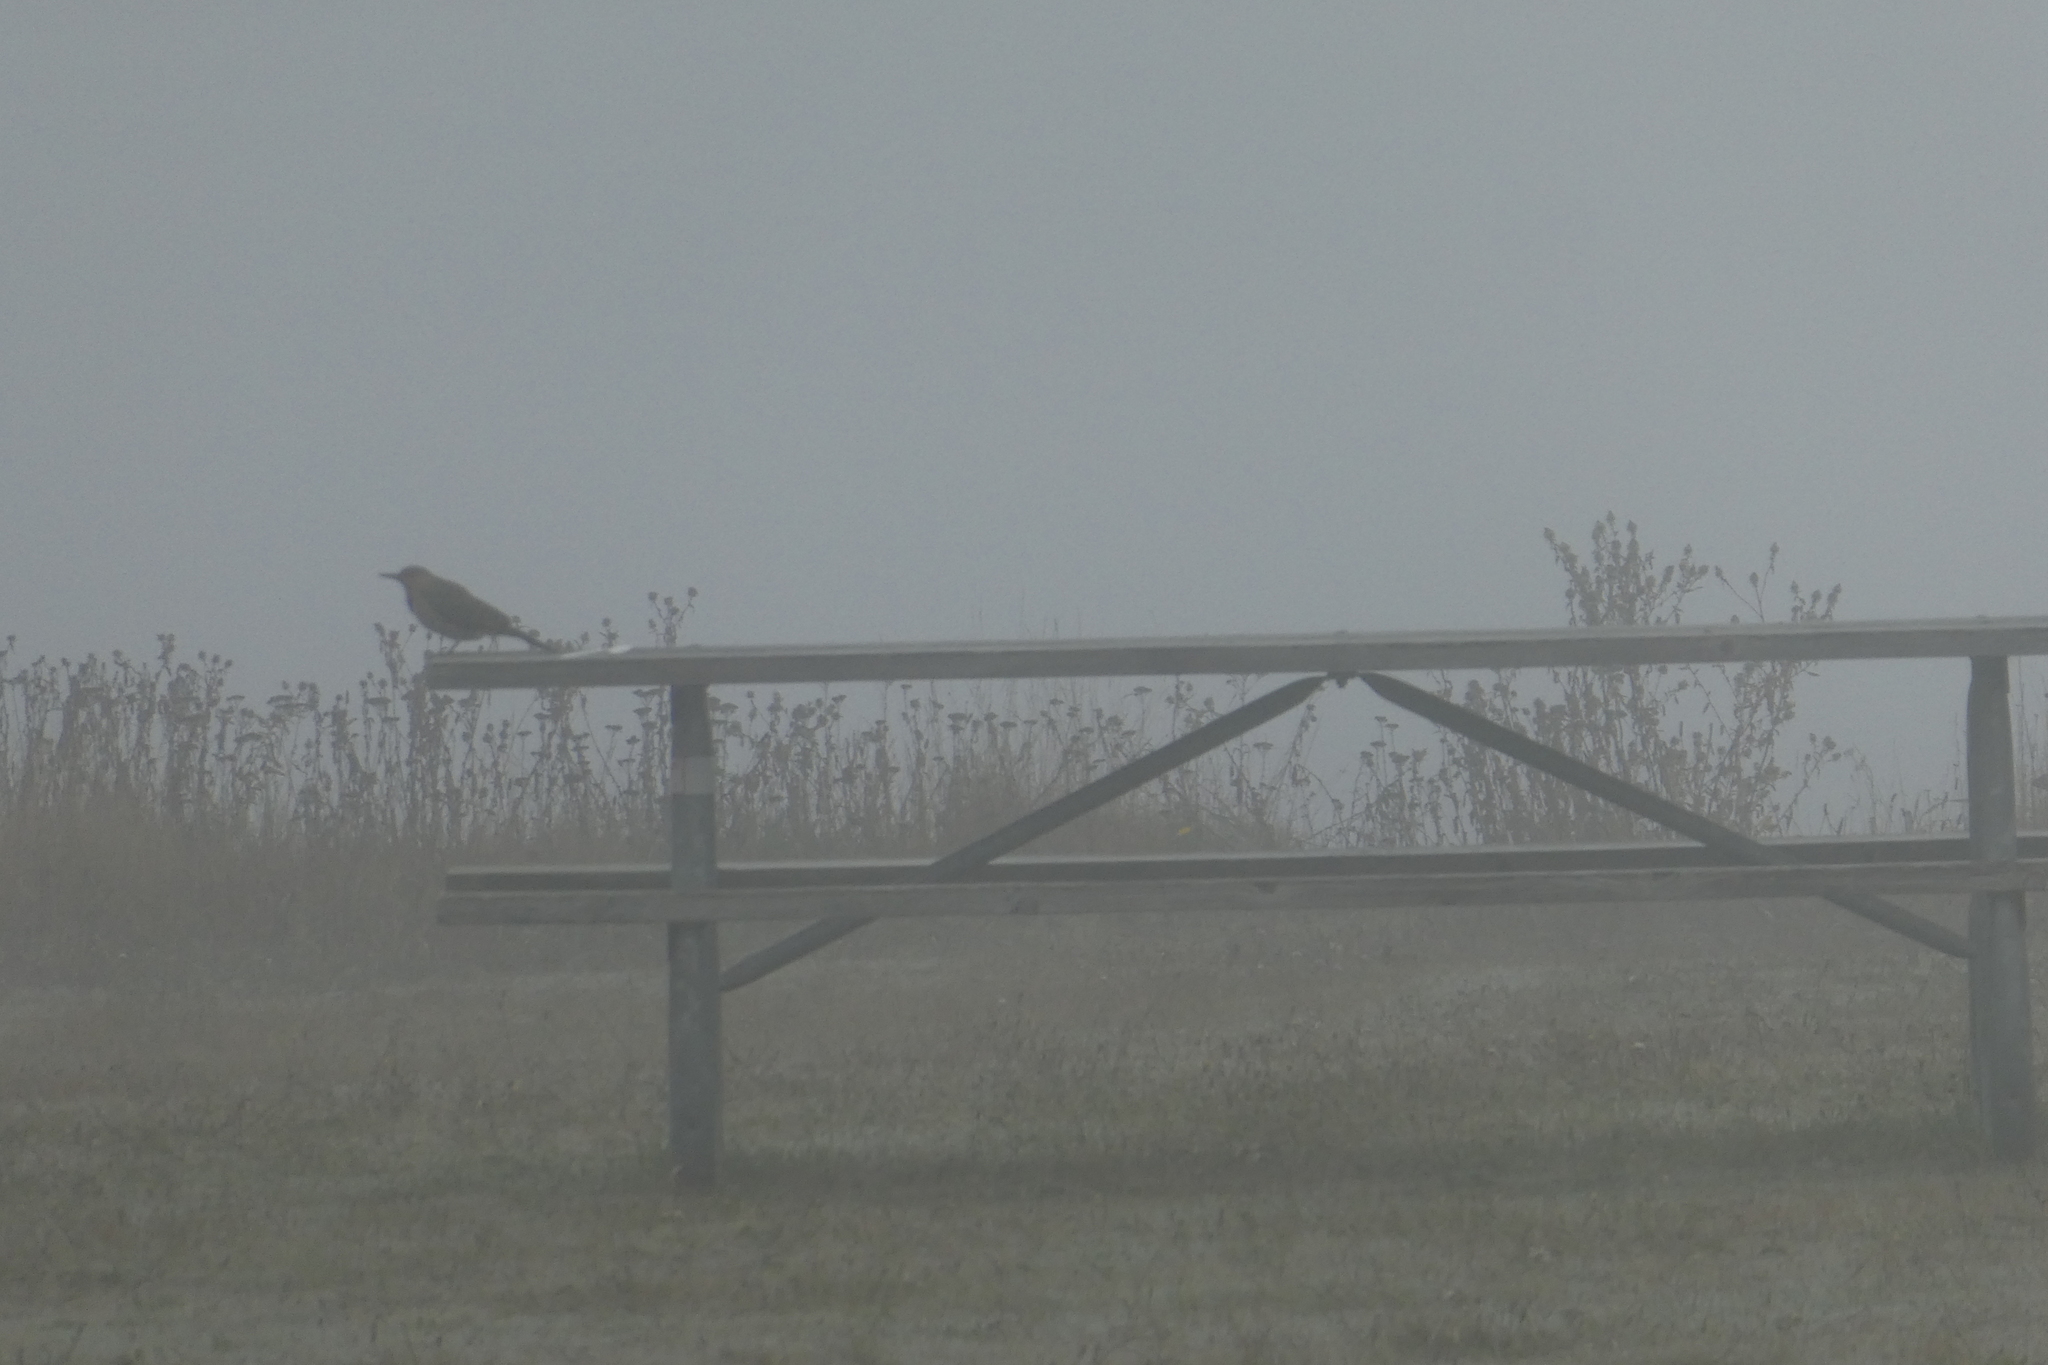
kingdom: Animalia
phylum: Chordata
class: Aves
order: Piciformes
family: Picidae
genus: Colaptes
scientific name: Colaptes auratus
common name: Northern flicker
